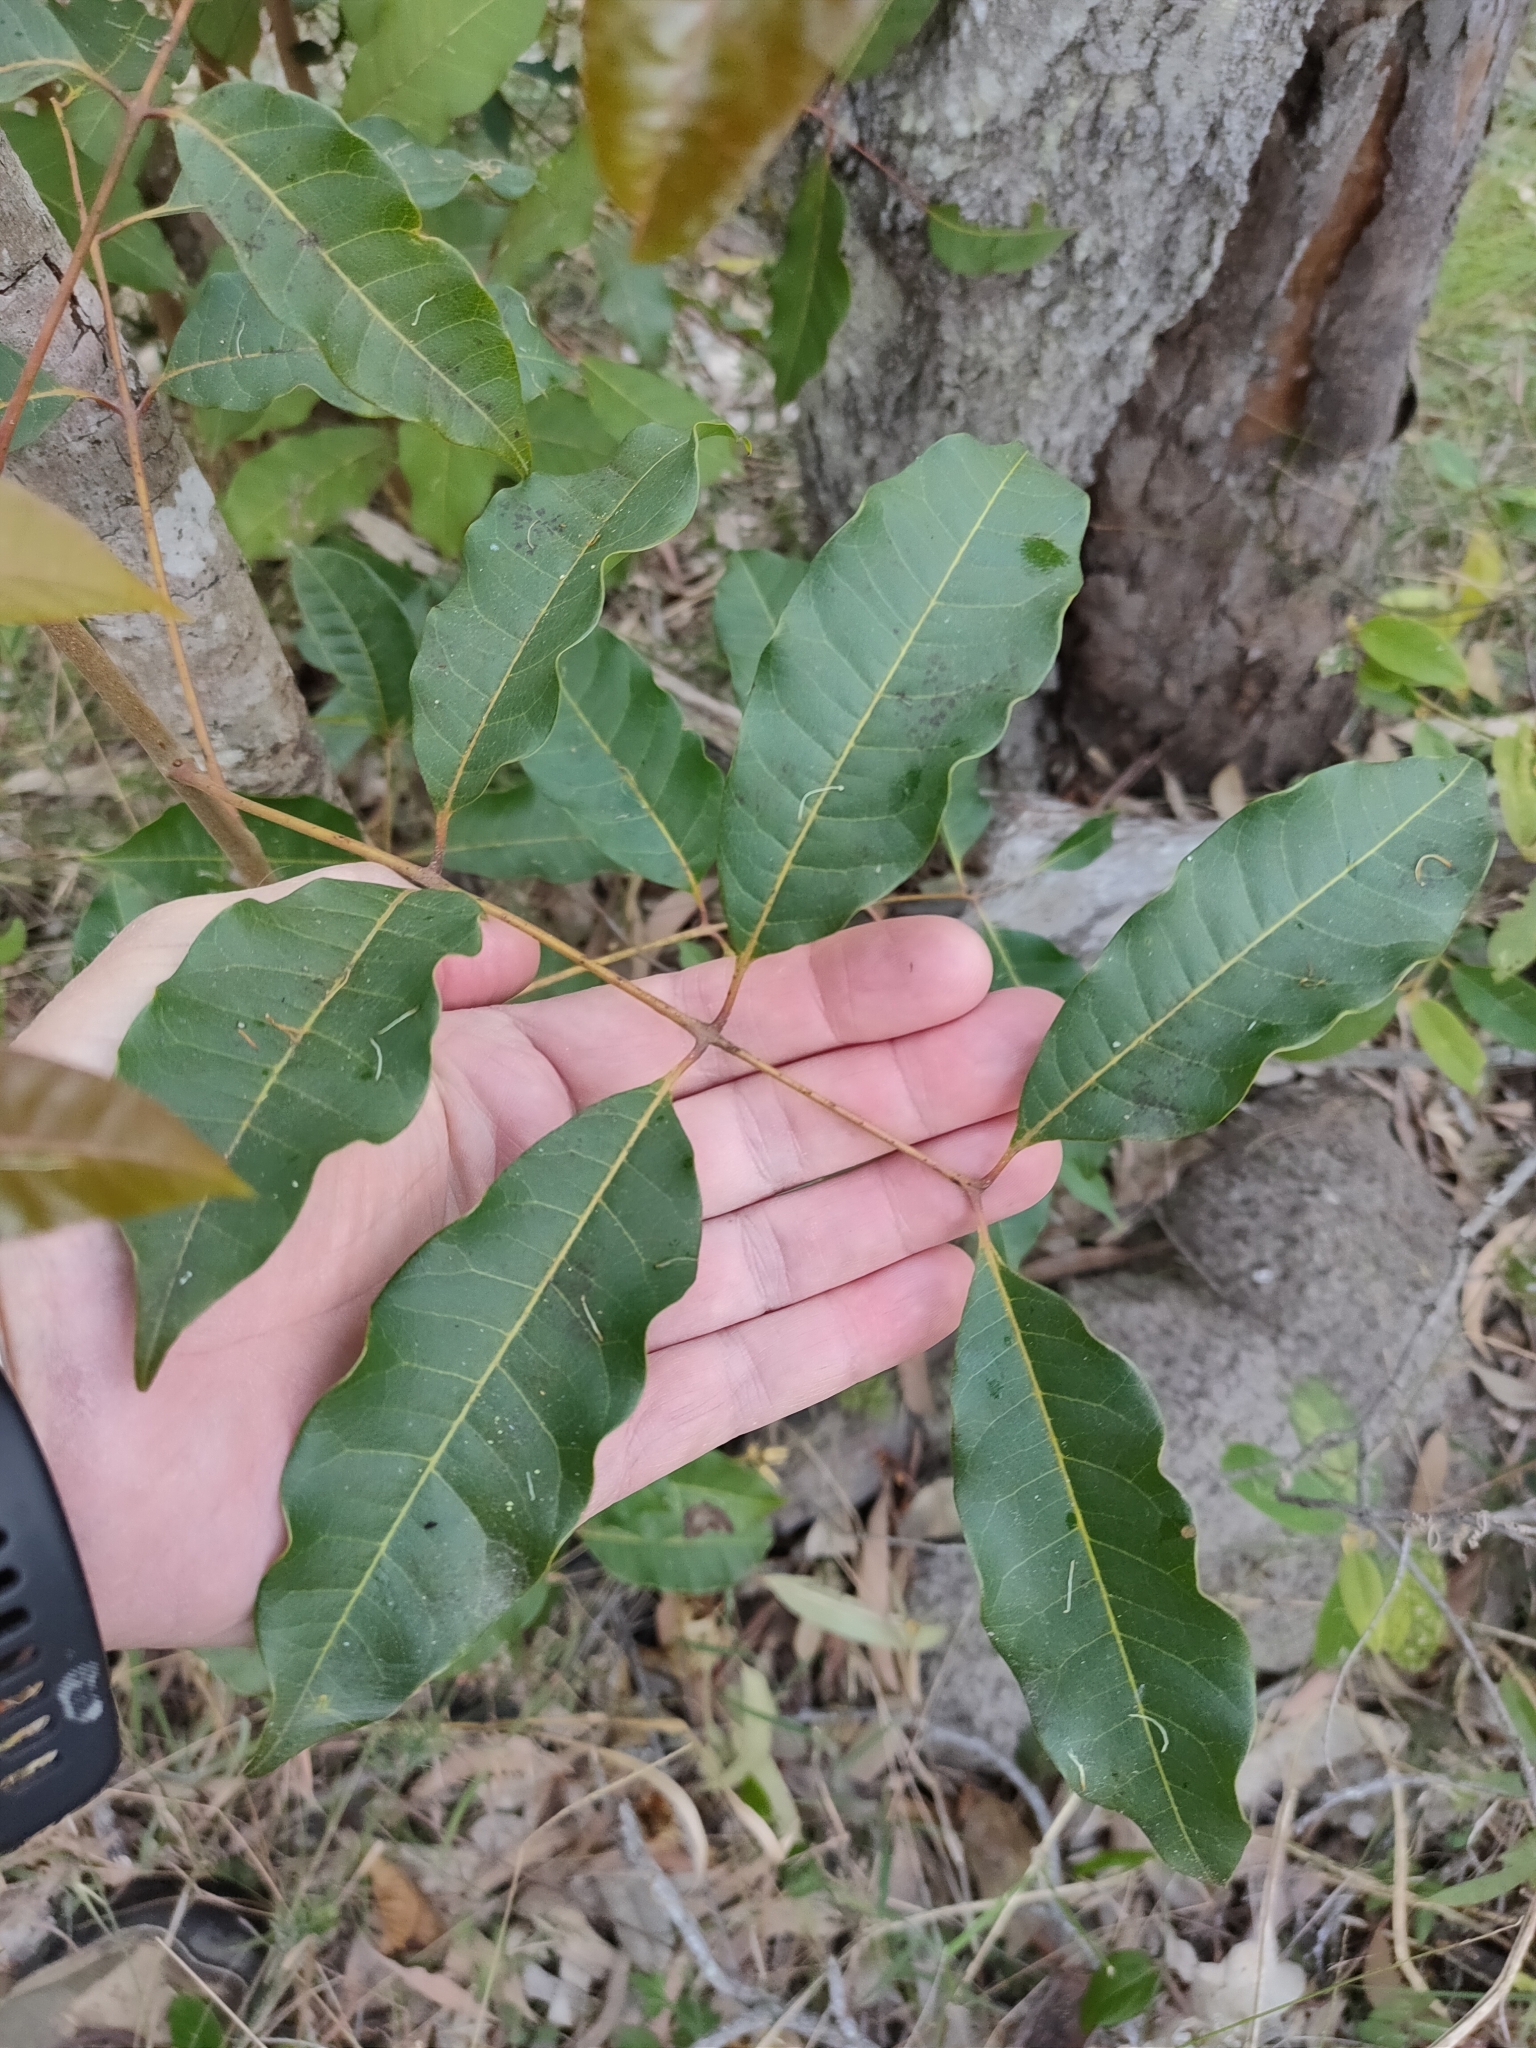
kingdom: Plantae
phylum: Tracheophyta
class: Magnoliopsida
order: Sapindales
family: Anacardiaceae
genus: Euroschinus
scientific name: Euroschinus falcatus
